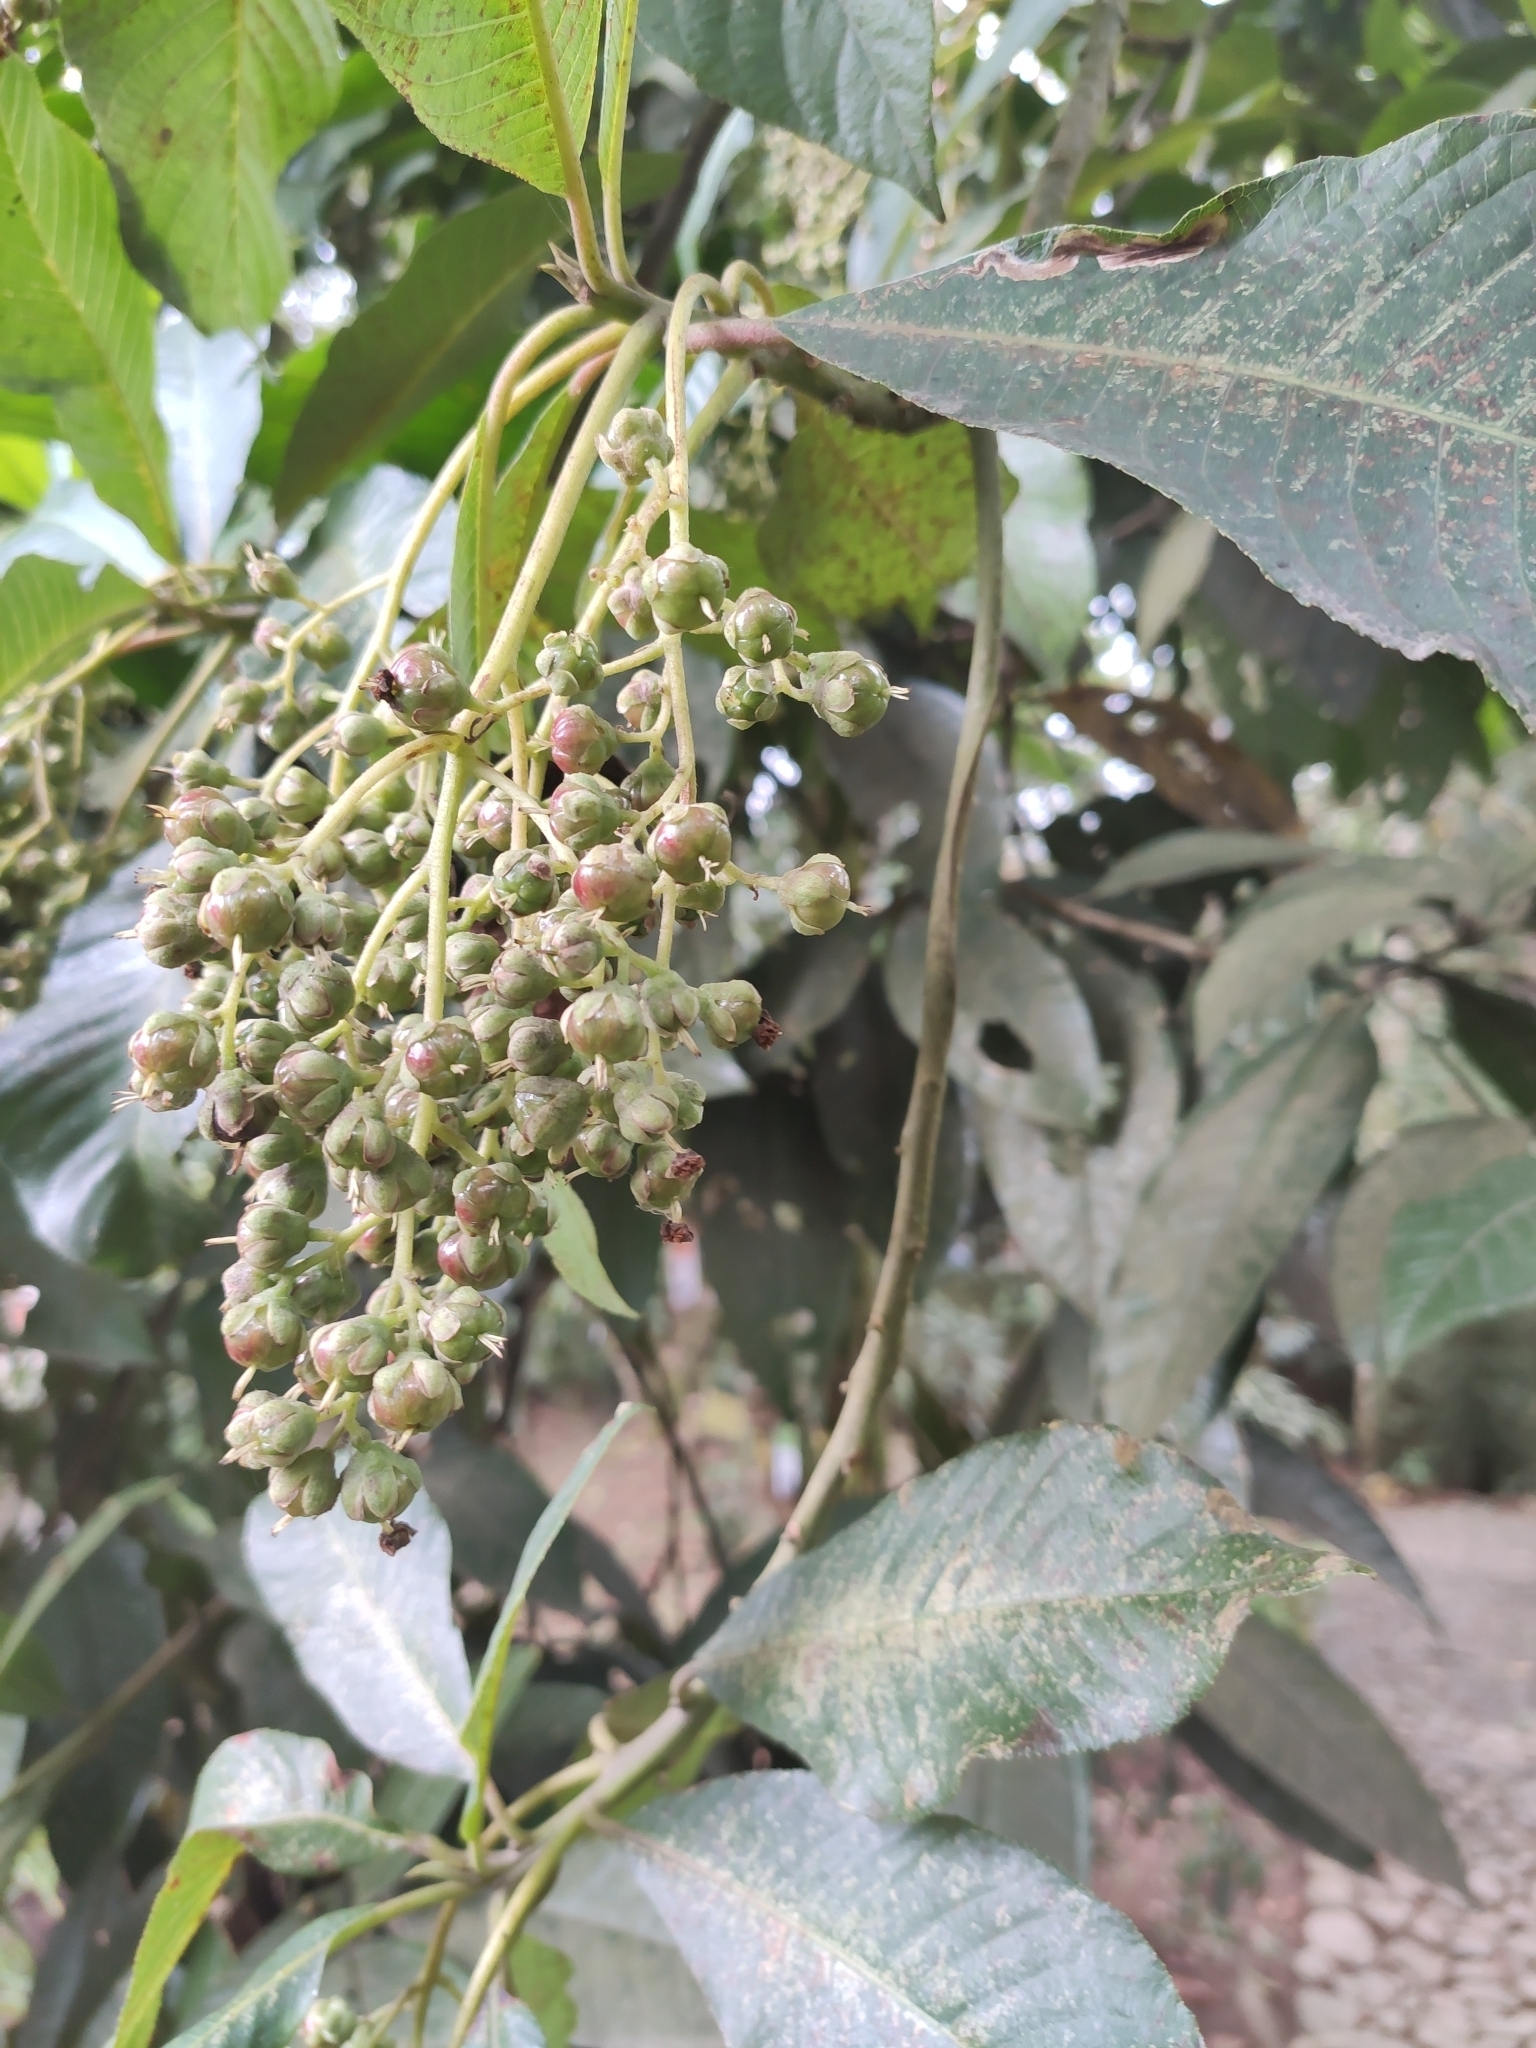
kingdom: Plantae
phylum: Tracheophyta
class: Magnoliopsida
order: Ericales
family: Actinidiaceae
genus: Saurauia
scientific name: Saurauia cuatrecasana
